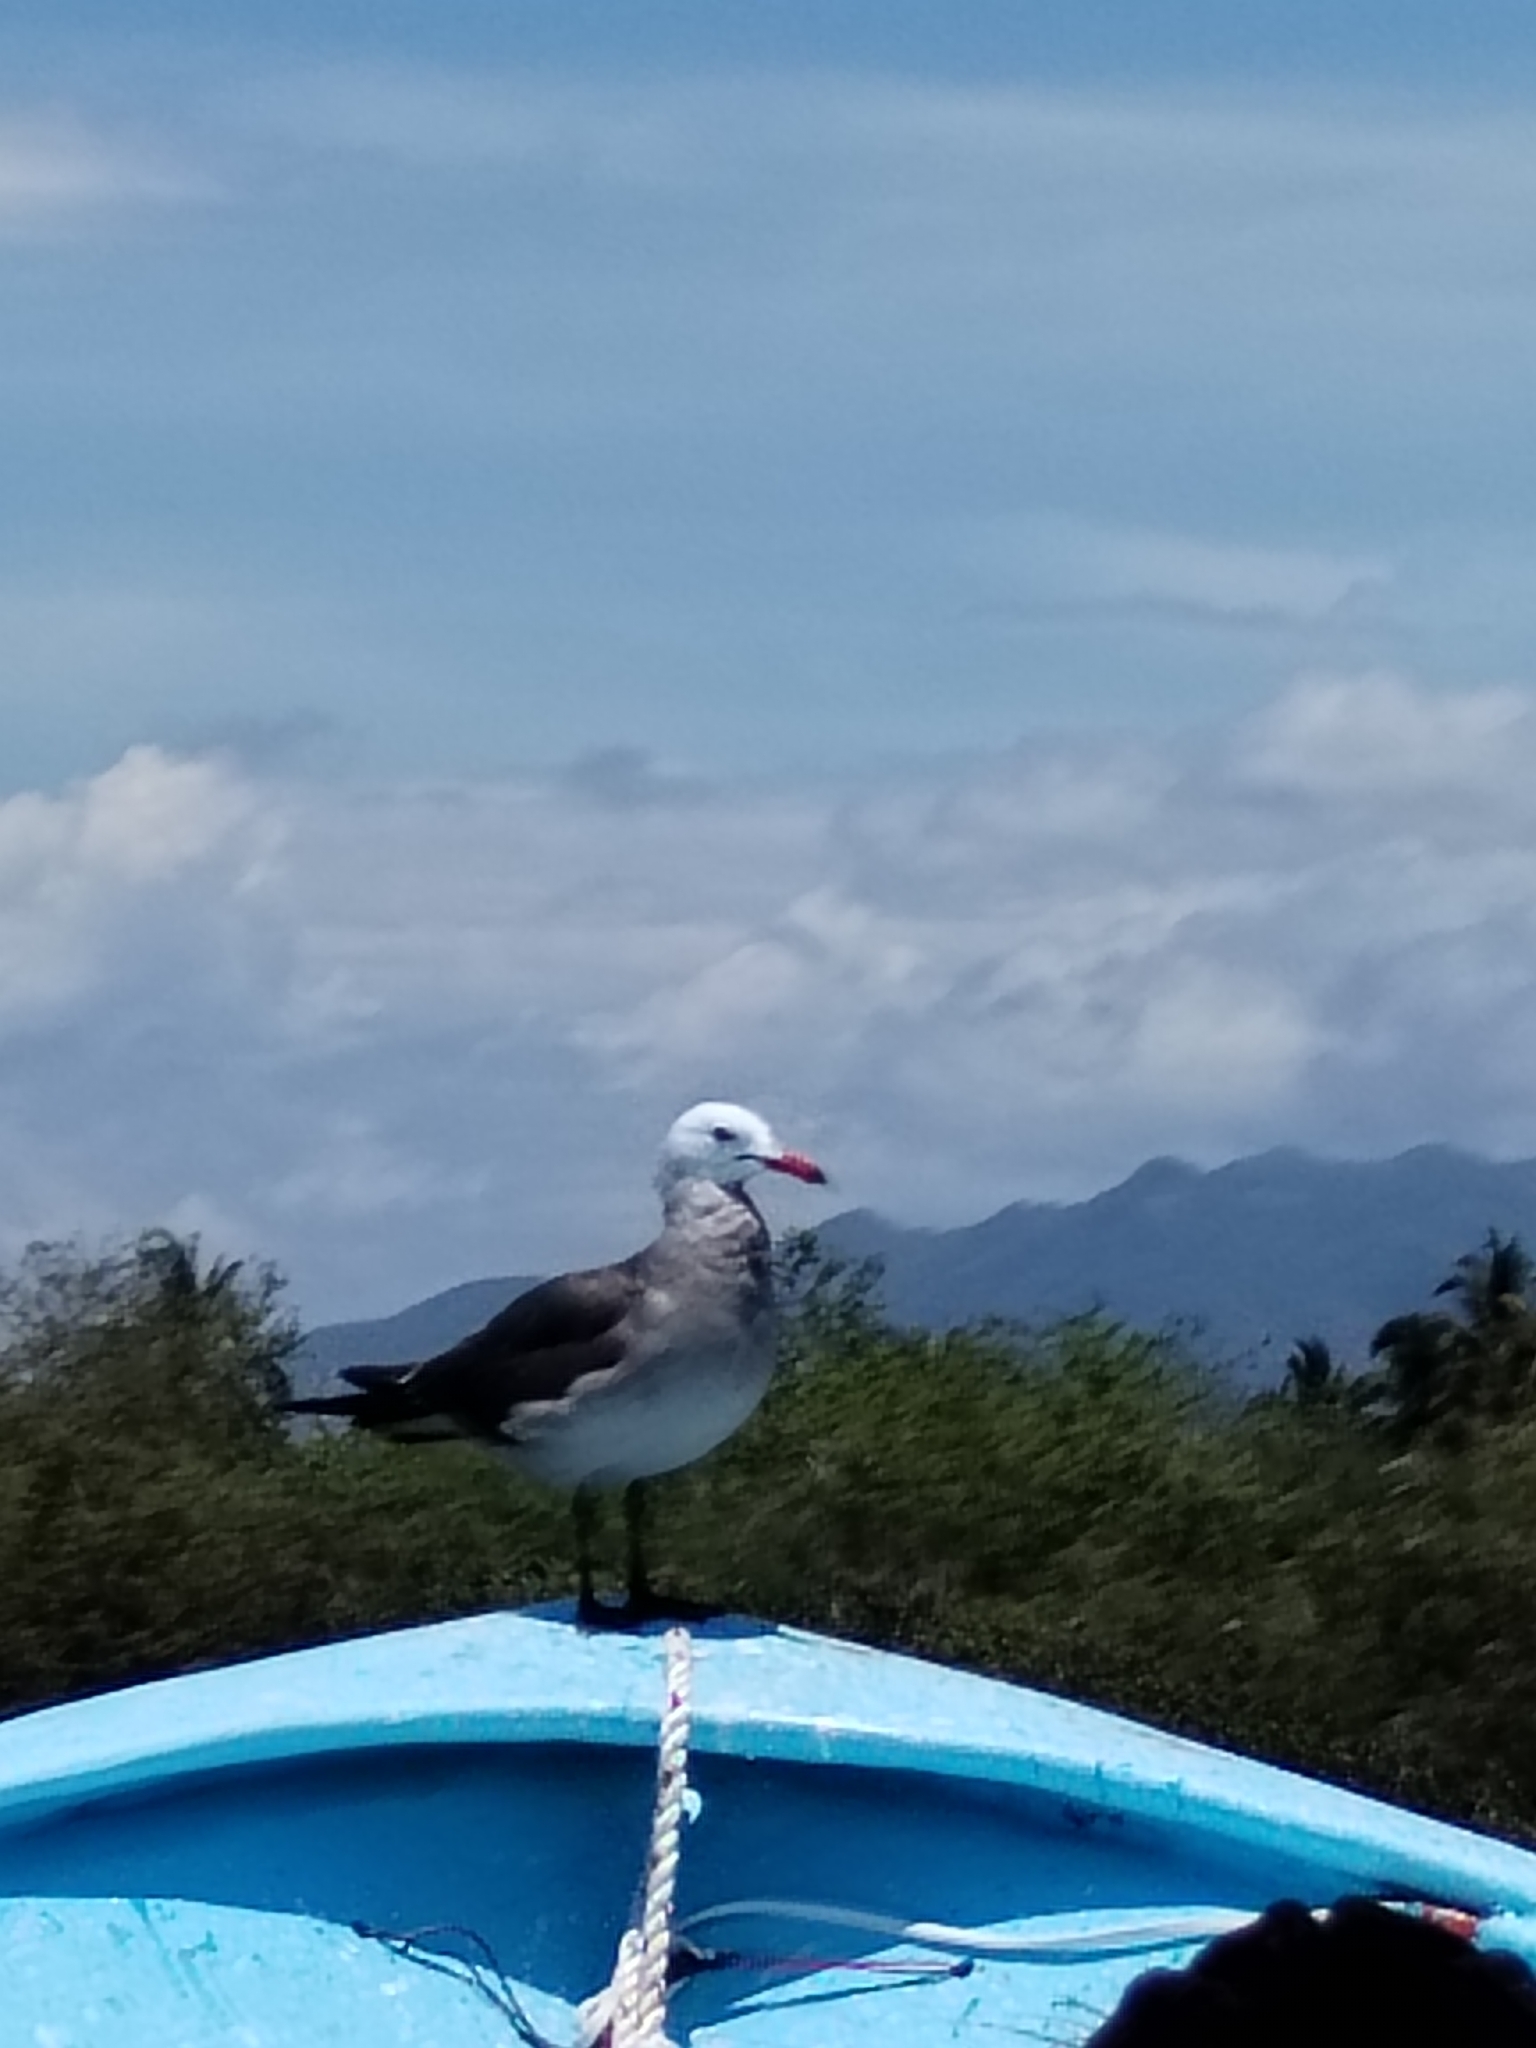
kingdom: Animalia
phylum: Chordata
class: Aves
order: Charadriiformes
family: Laridae
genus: Larus
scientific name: Larus heermanni
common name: Heermann's gull
